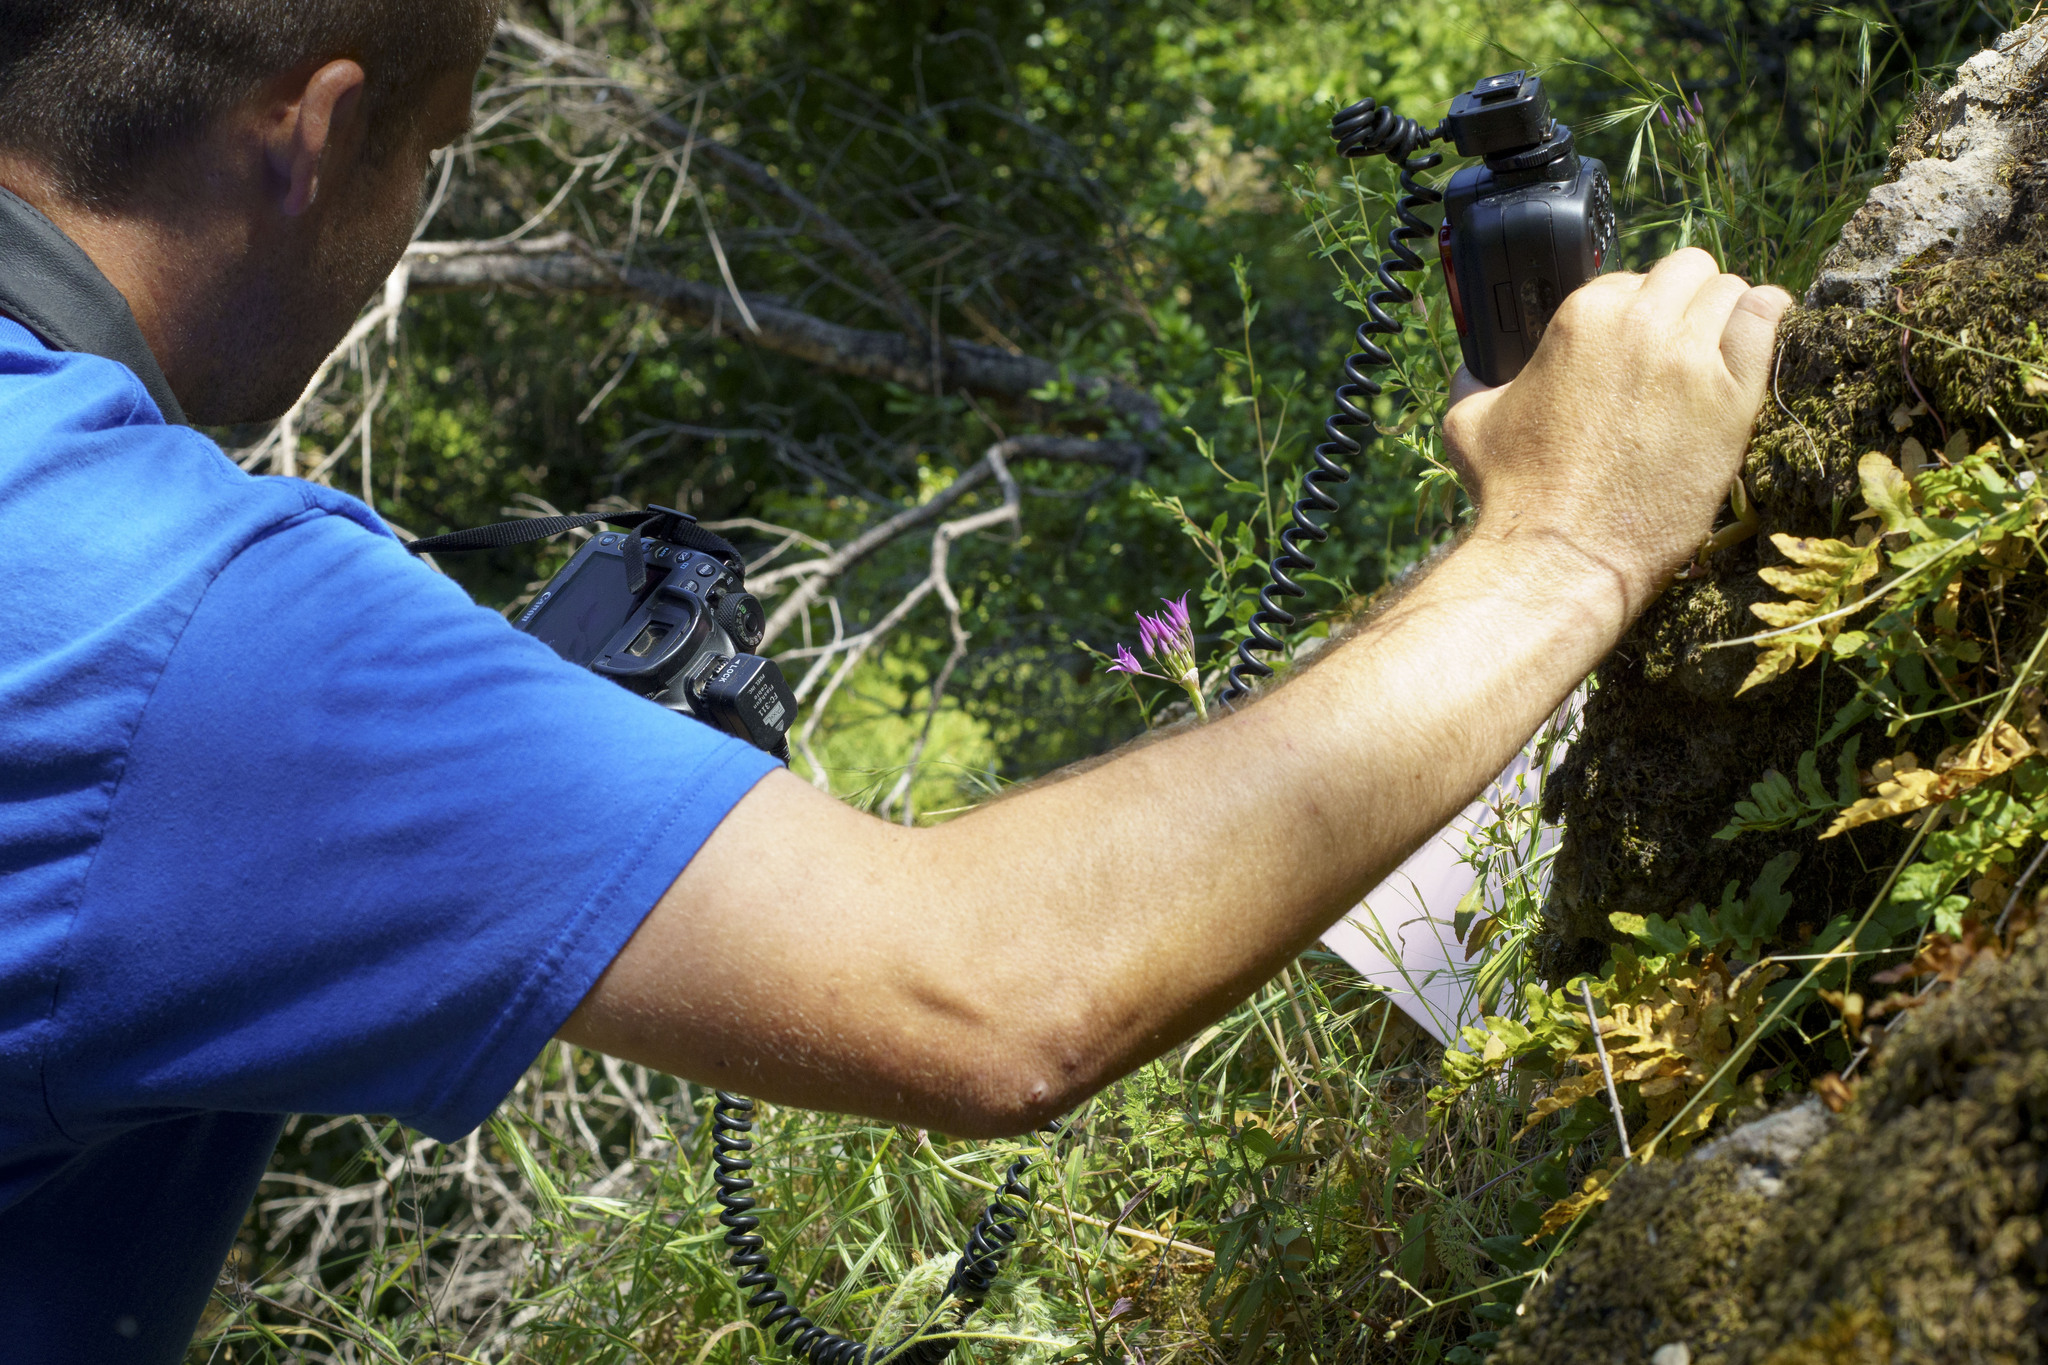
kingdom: Plantae
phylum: Tracheophyta
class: Liliopsida
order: Asparagales
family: Amaryllidaceae
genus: Allium
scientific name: Allium peninsulare
